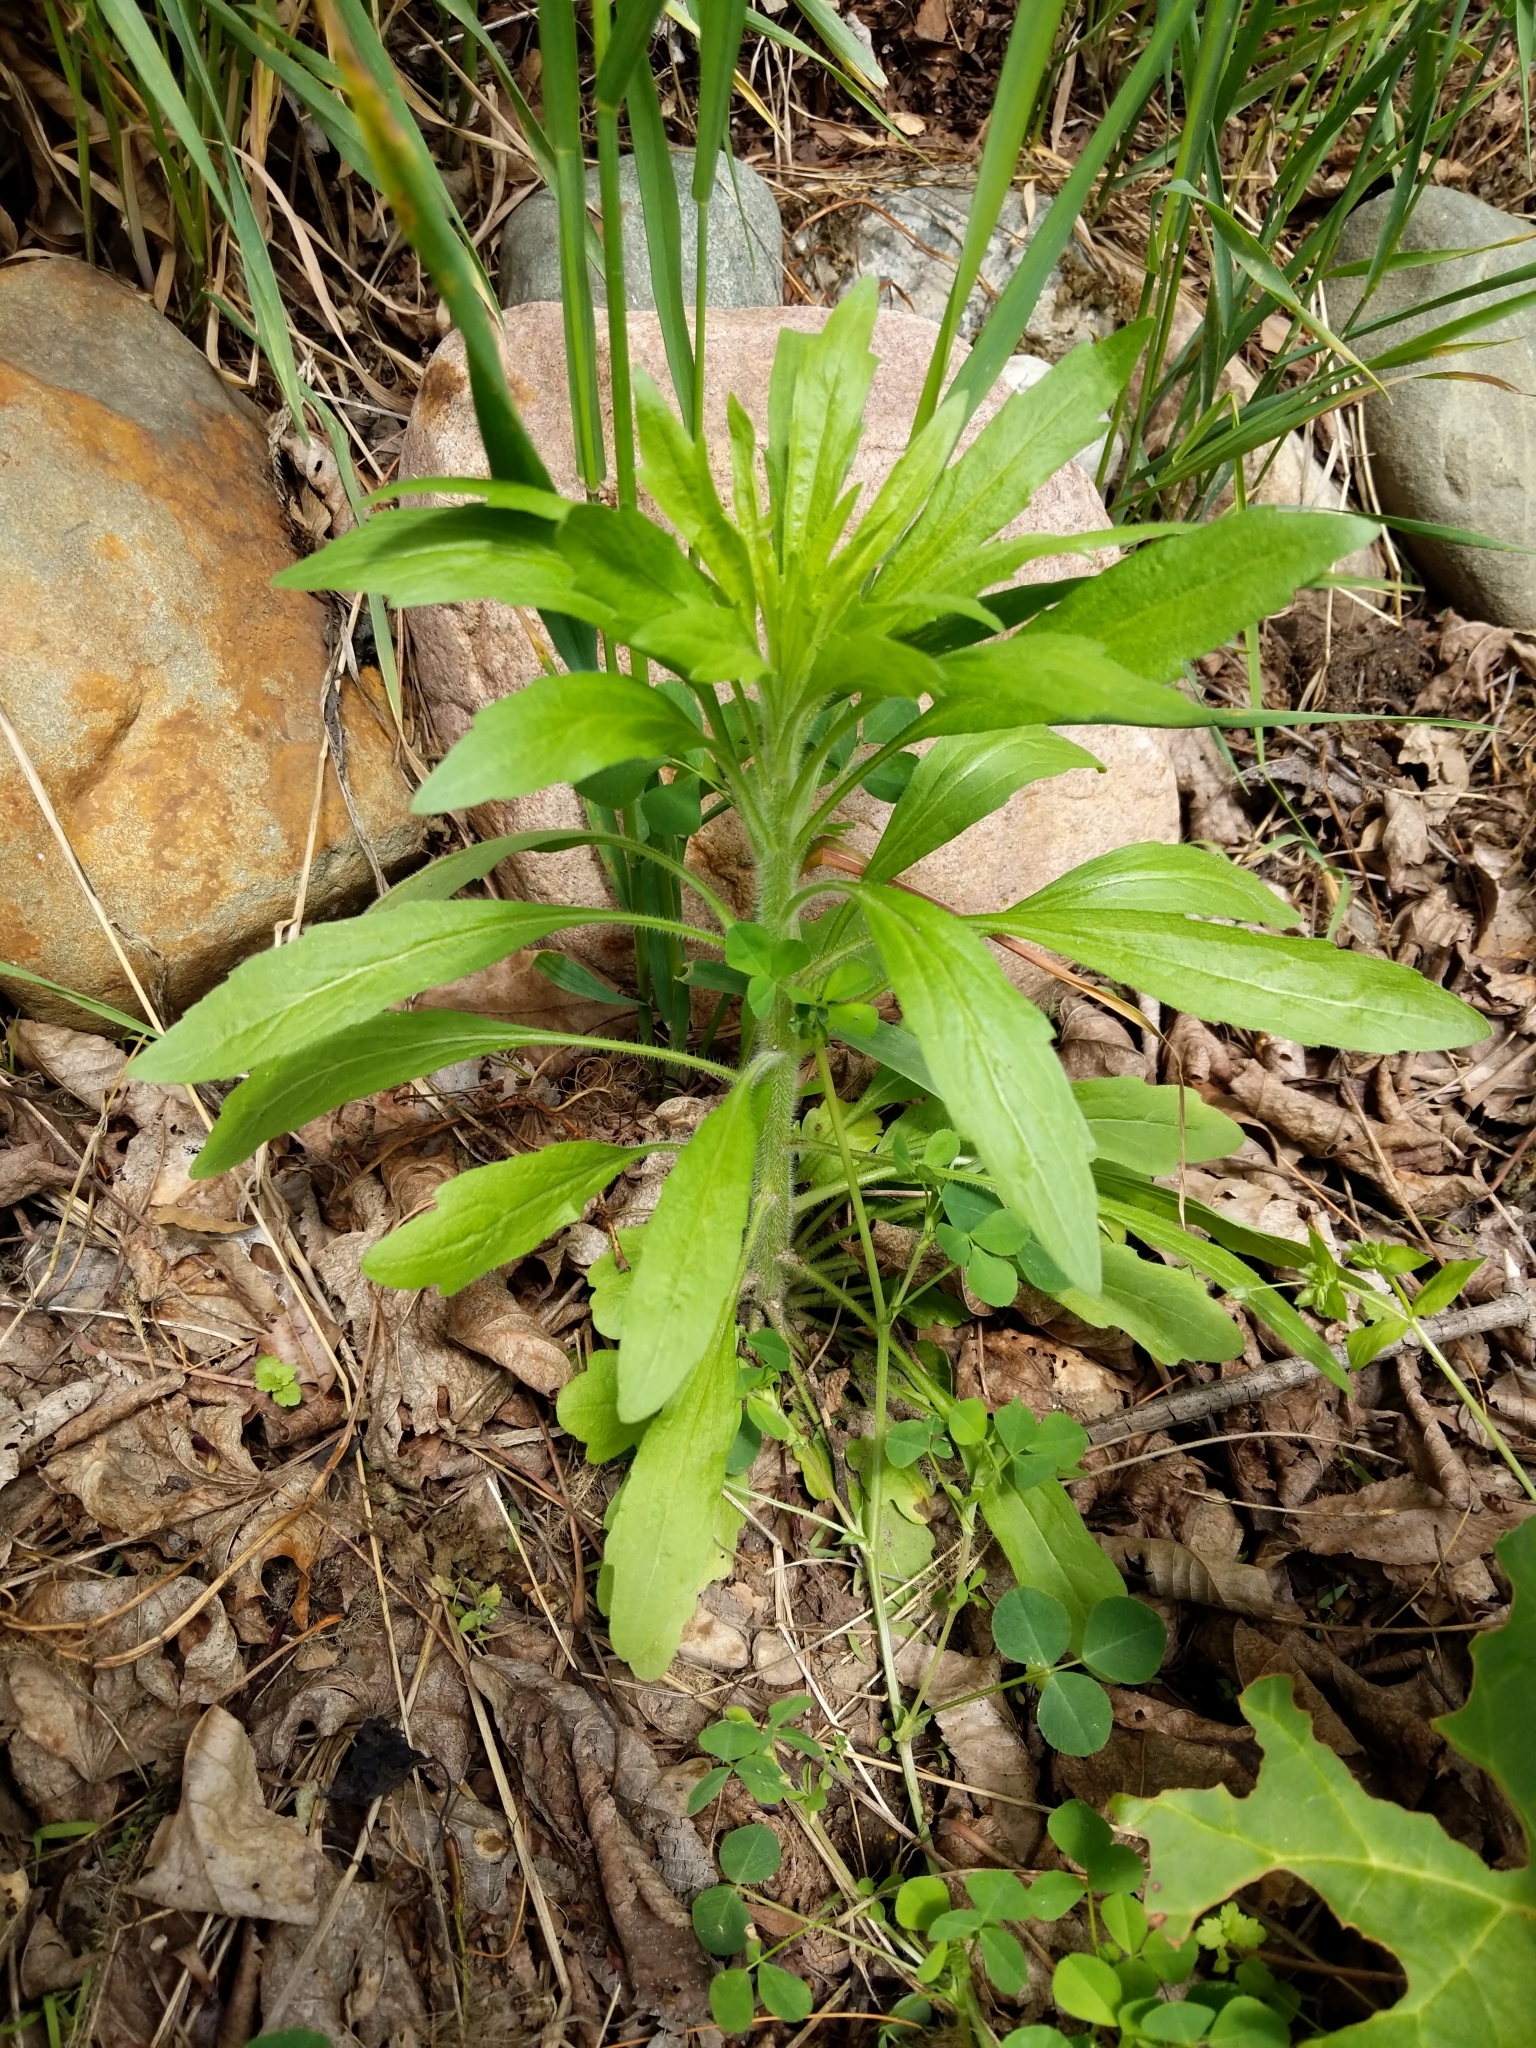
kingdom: Plantae
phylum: Tracheophyta
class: Magnoliopsida
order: Asterales
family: Asteraceae
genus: Erigeron
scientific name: Erigeron canadensis
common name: Canadian fleabane
